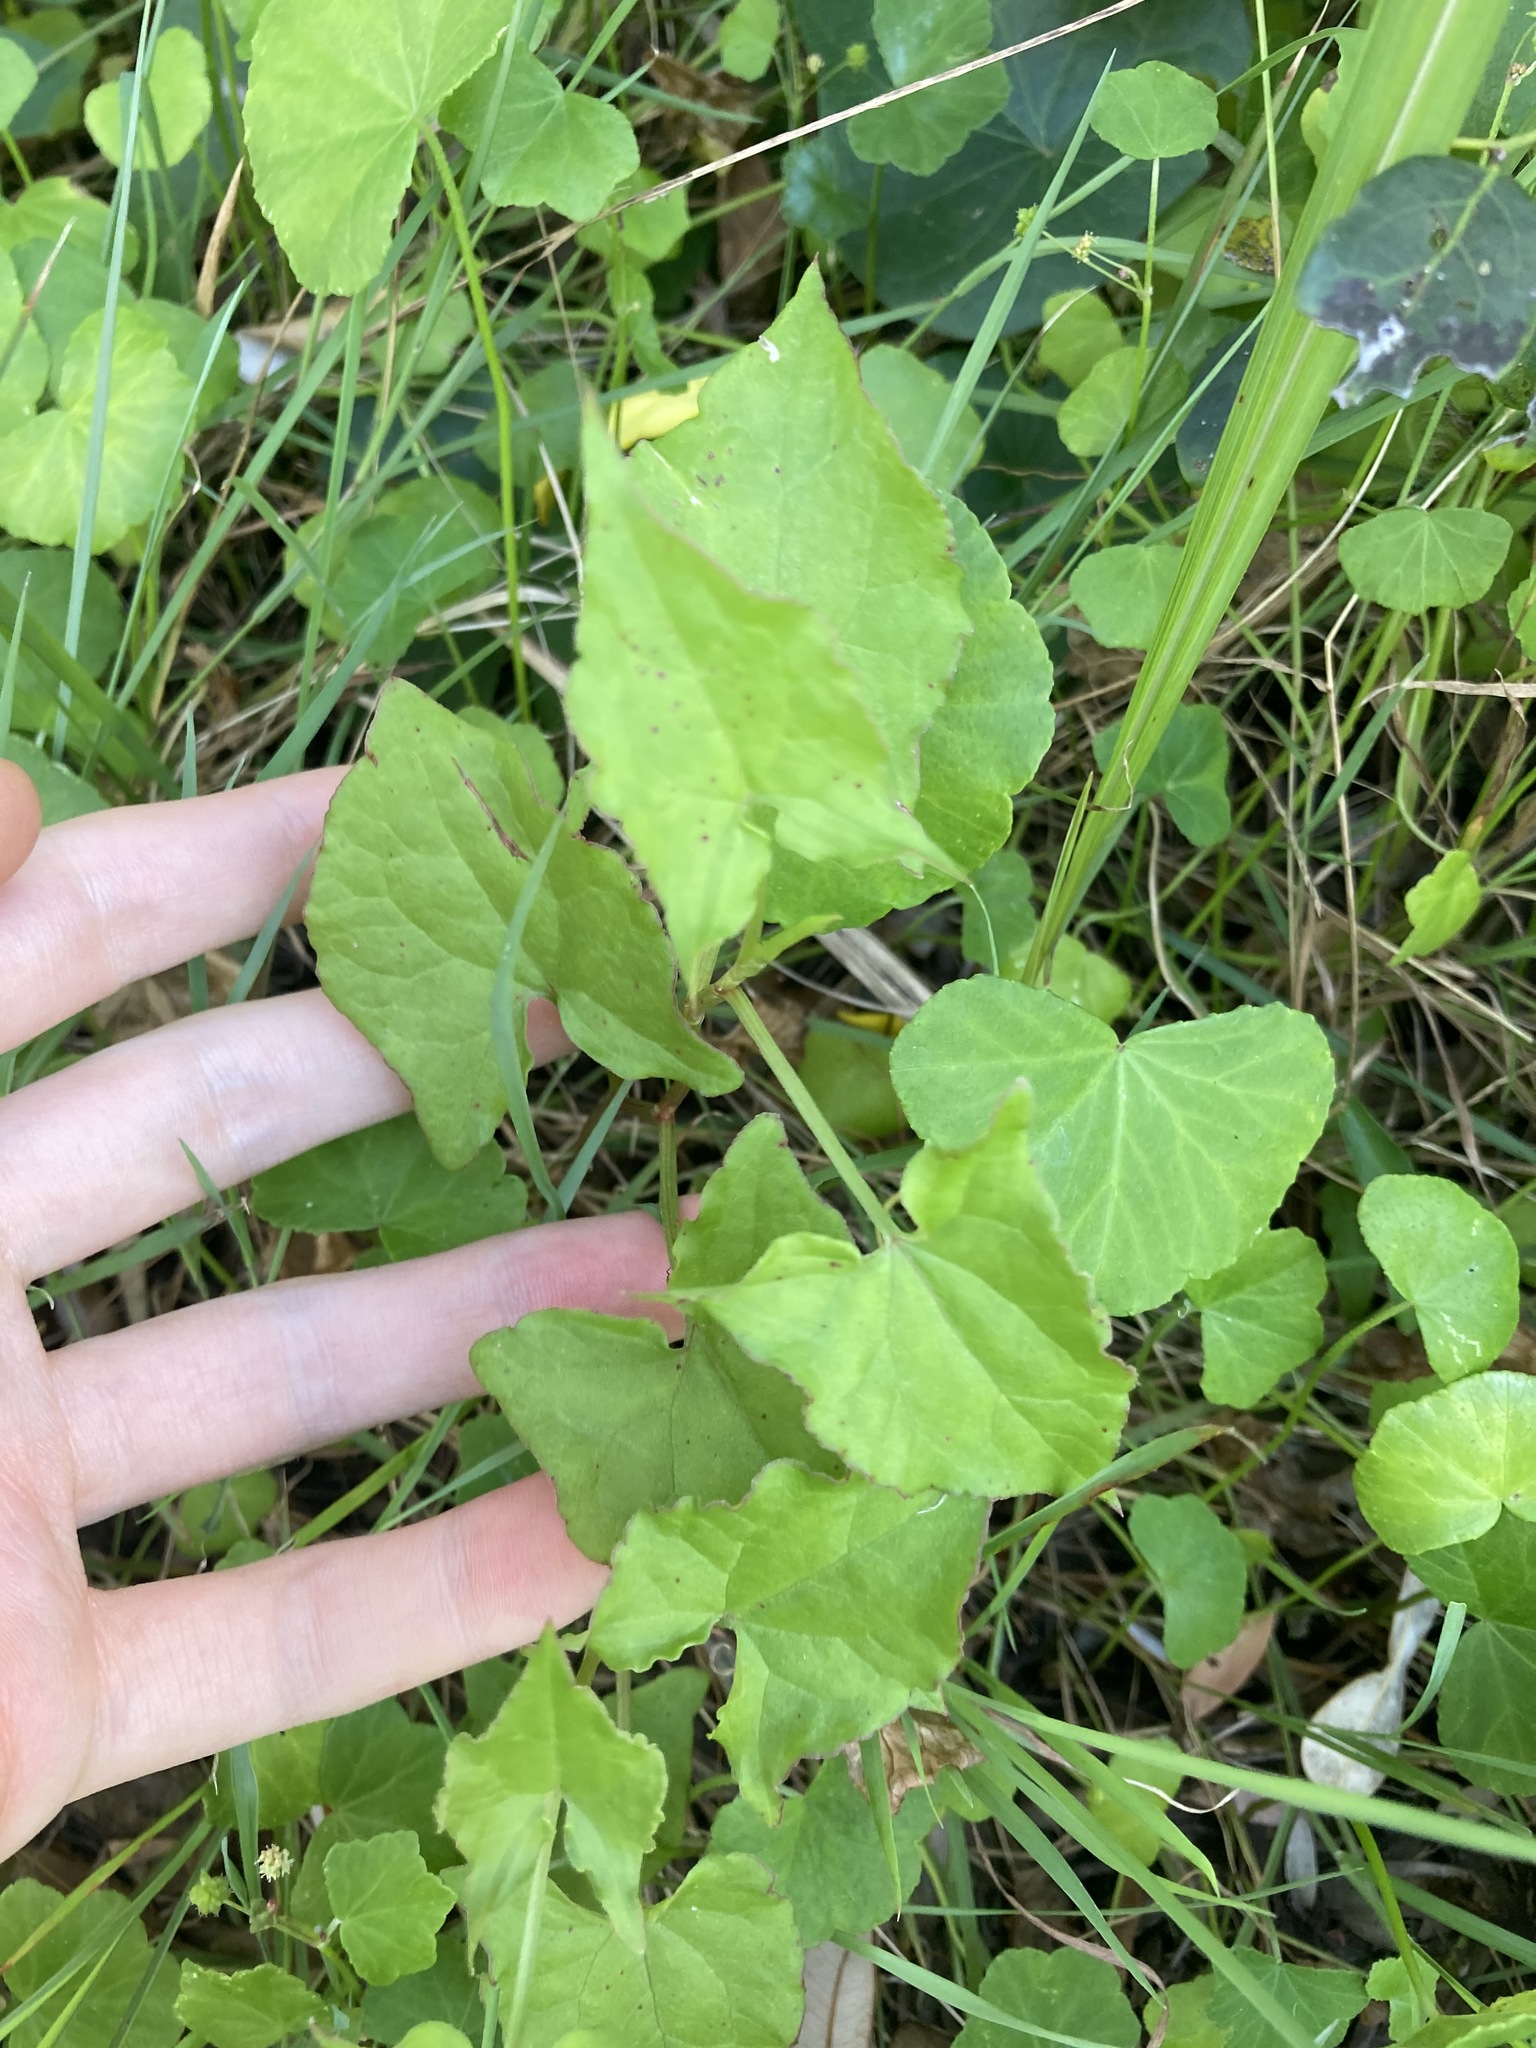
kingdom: Plantae
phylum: Tracheophyta
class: Magnoliopsida
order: Caryophyllales
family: Polygonaceae
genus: Rumex
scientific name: Rumex sagittatus
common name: Climbing dock
